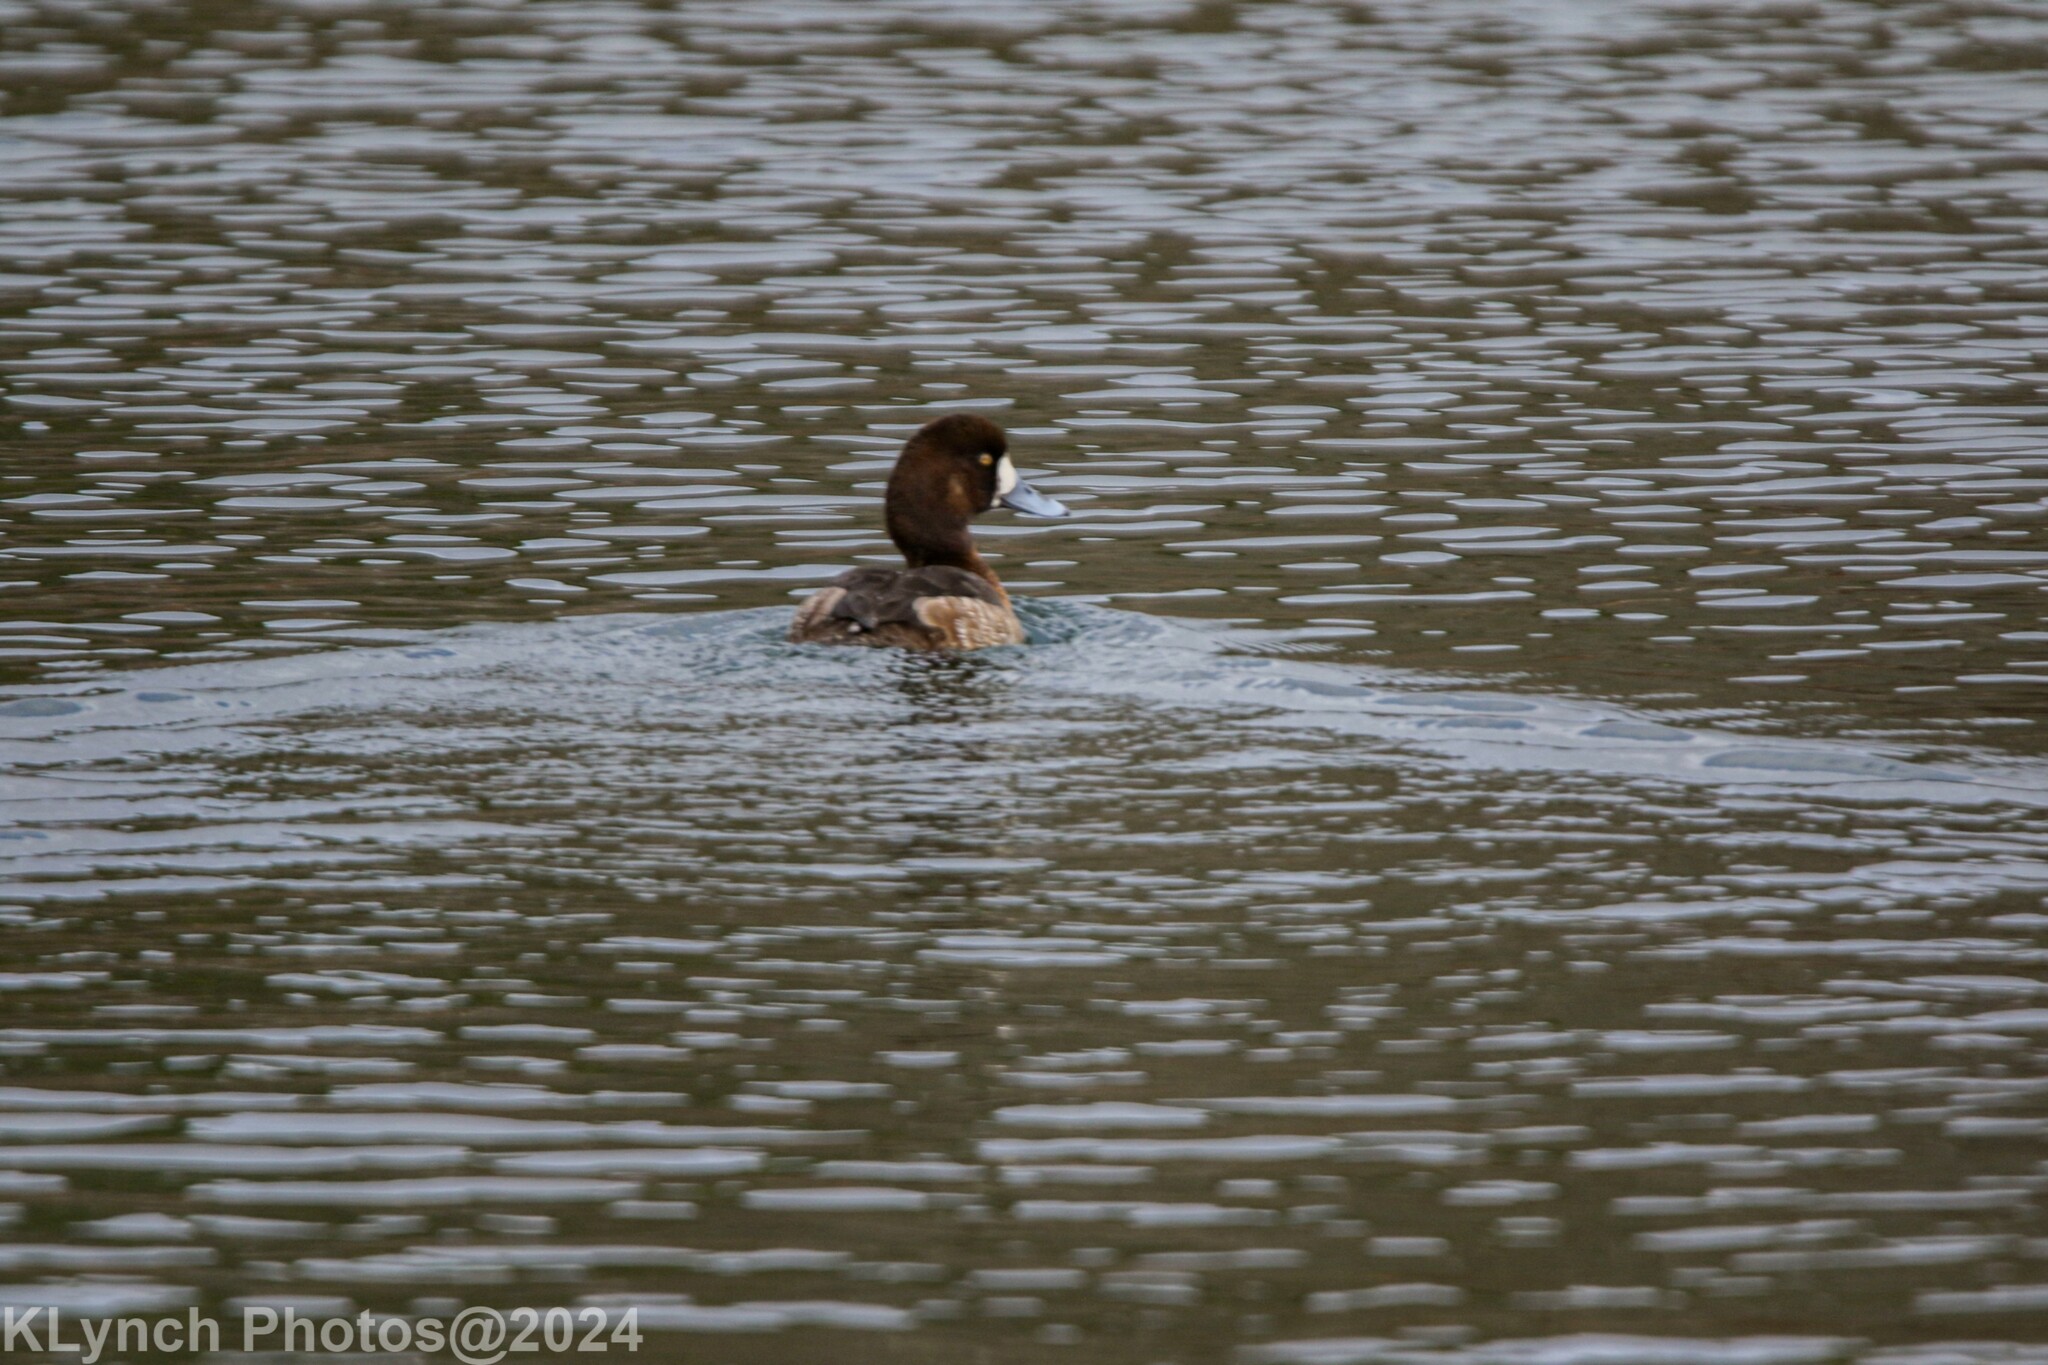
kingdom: Animalia
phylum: Chordata
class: Aves
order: Anseriformes
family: Anatidae
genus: Aythya
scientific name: Aythya marila
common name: Greater scaup
